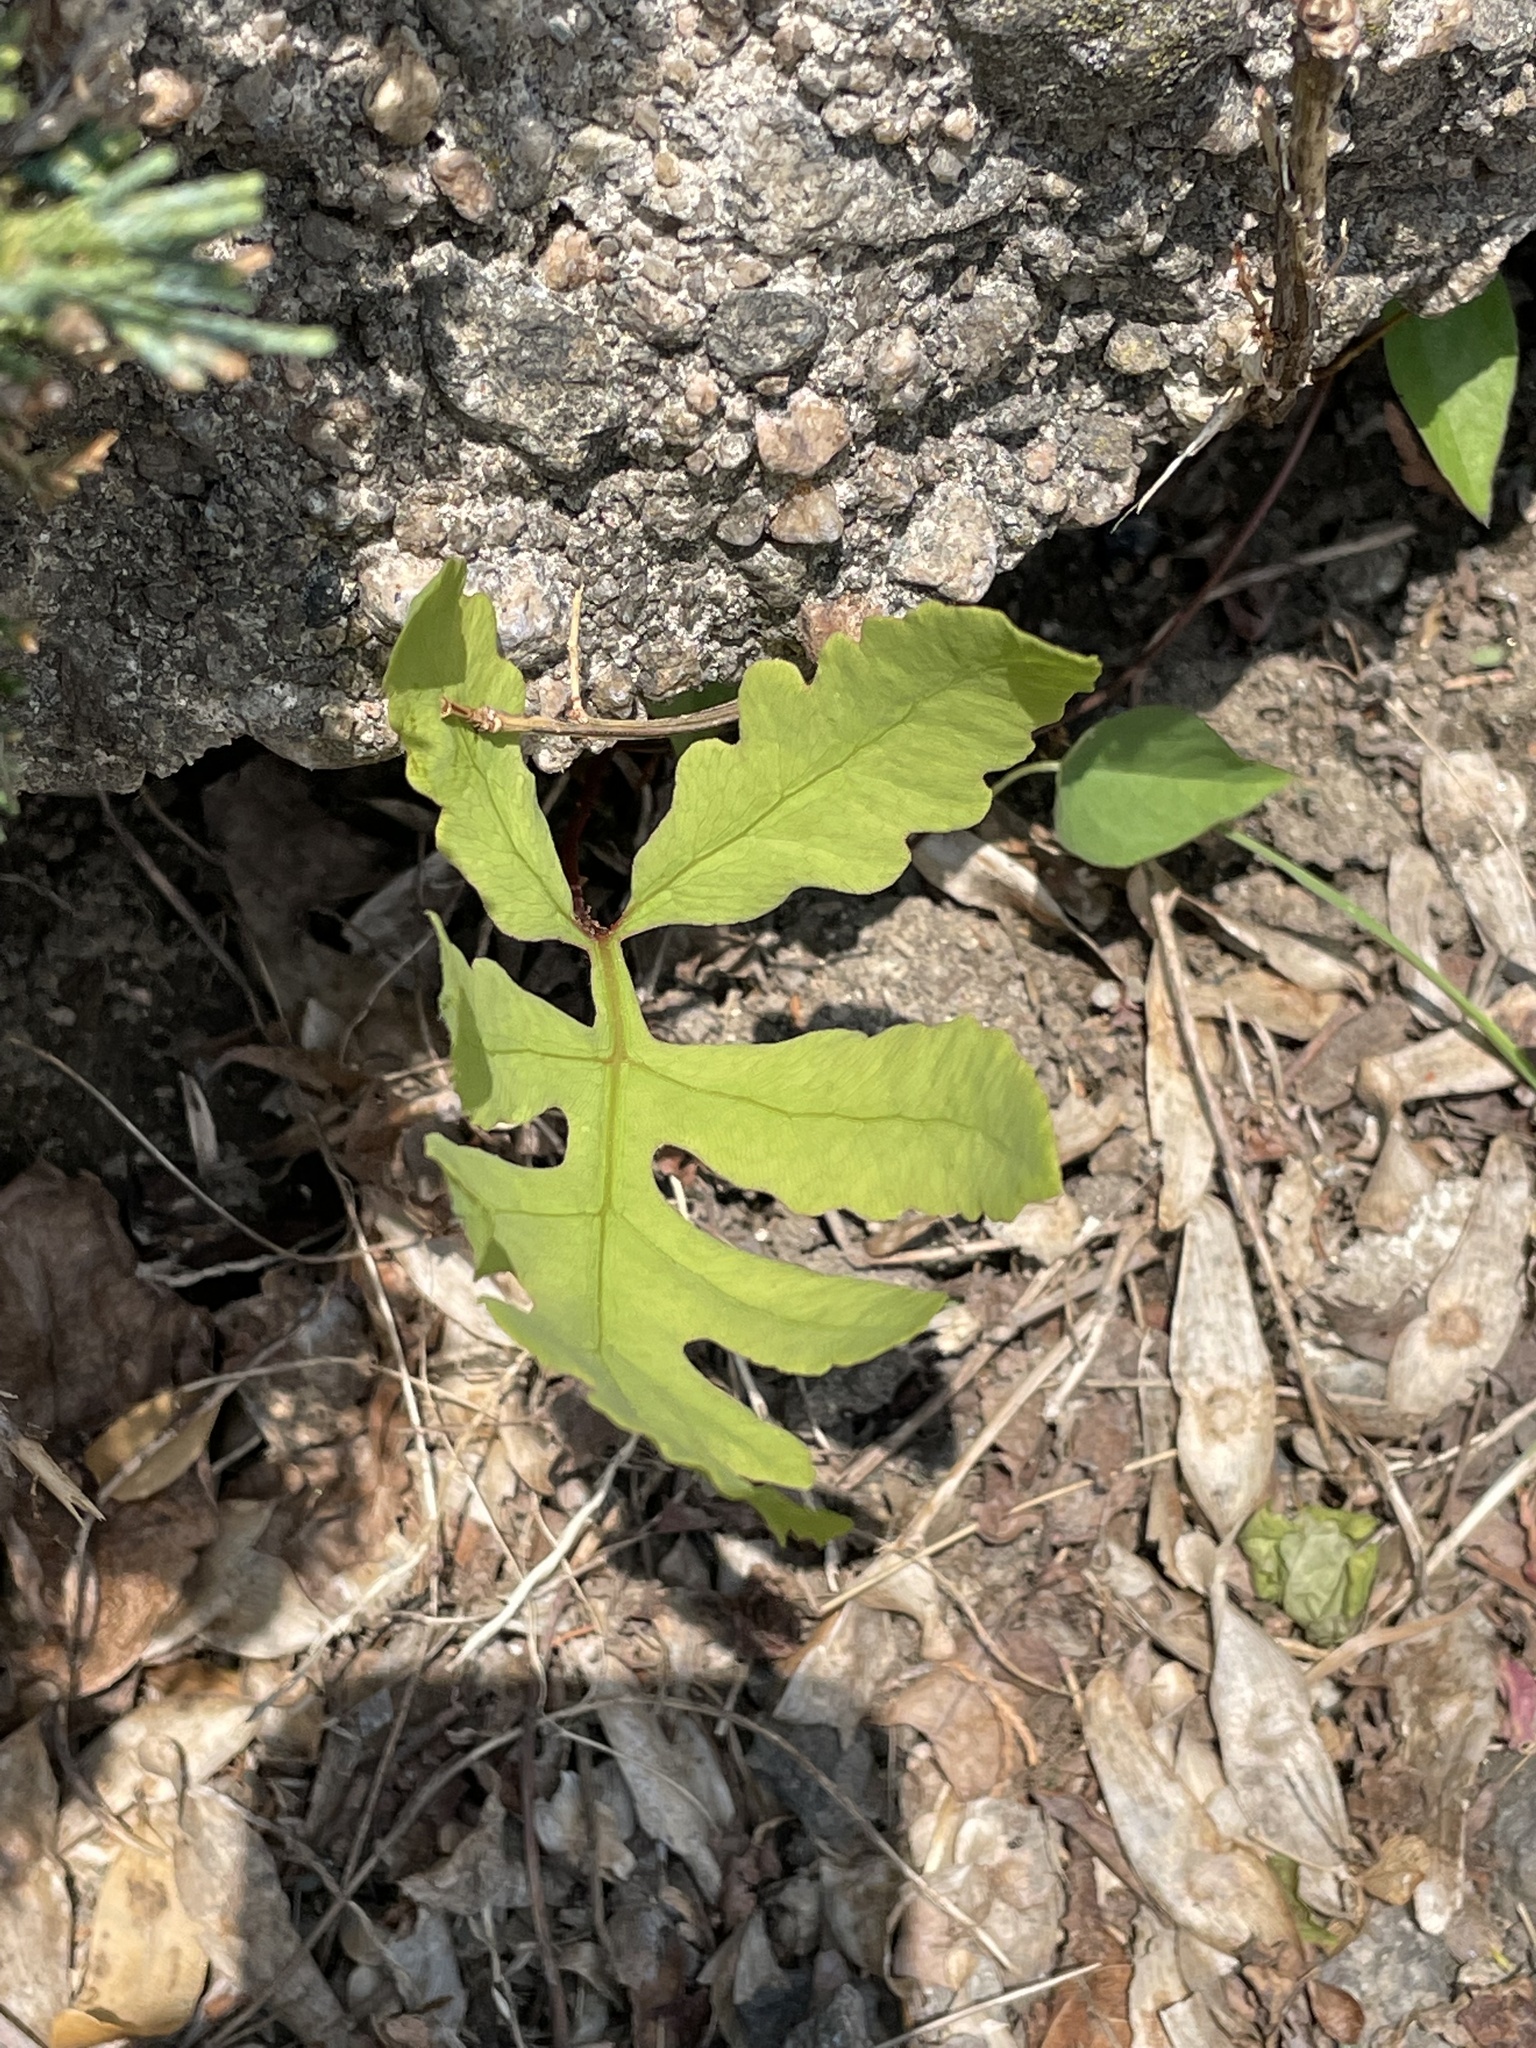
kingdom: Plantae
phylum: Tracheophyta
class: Polypodiopsida
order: Polypodiales
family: Onocleaceae
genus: Onoclea
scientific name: Onoclea sensibilis
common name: Sensitive fern
